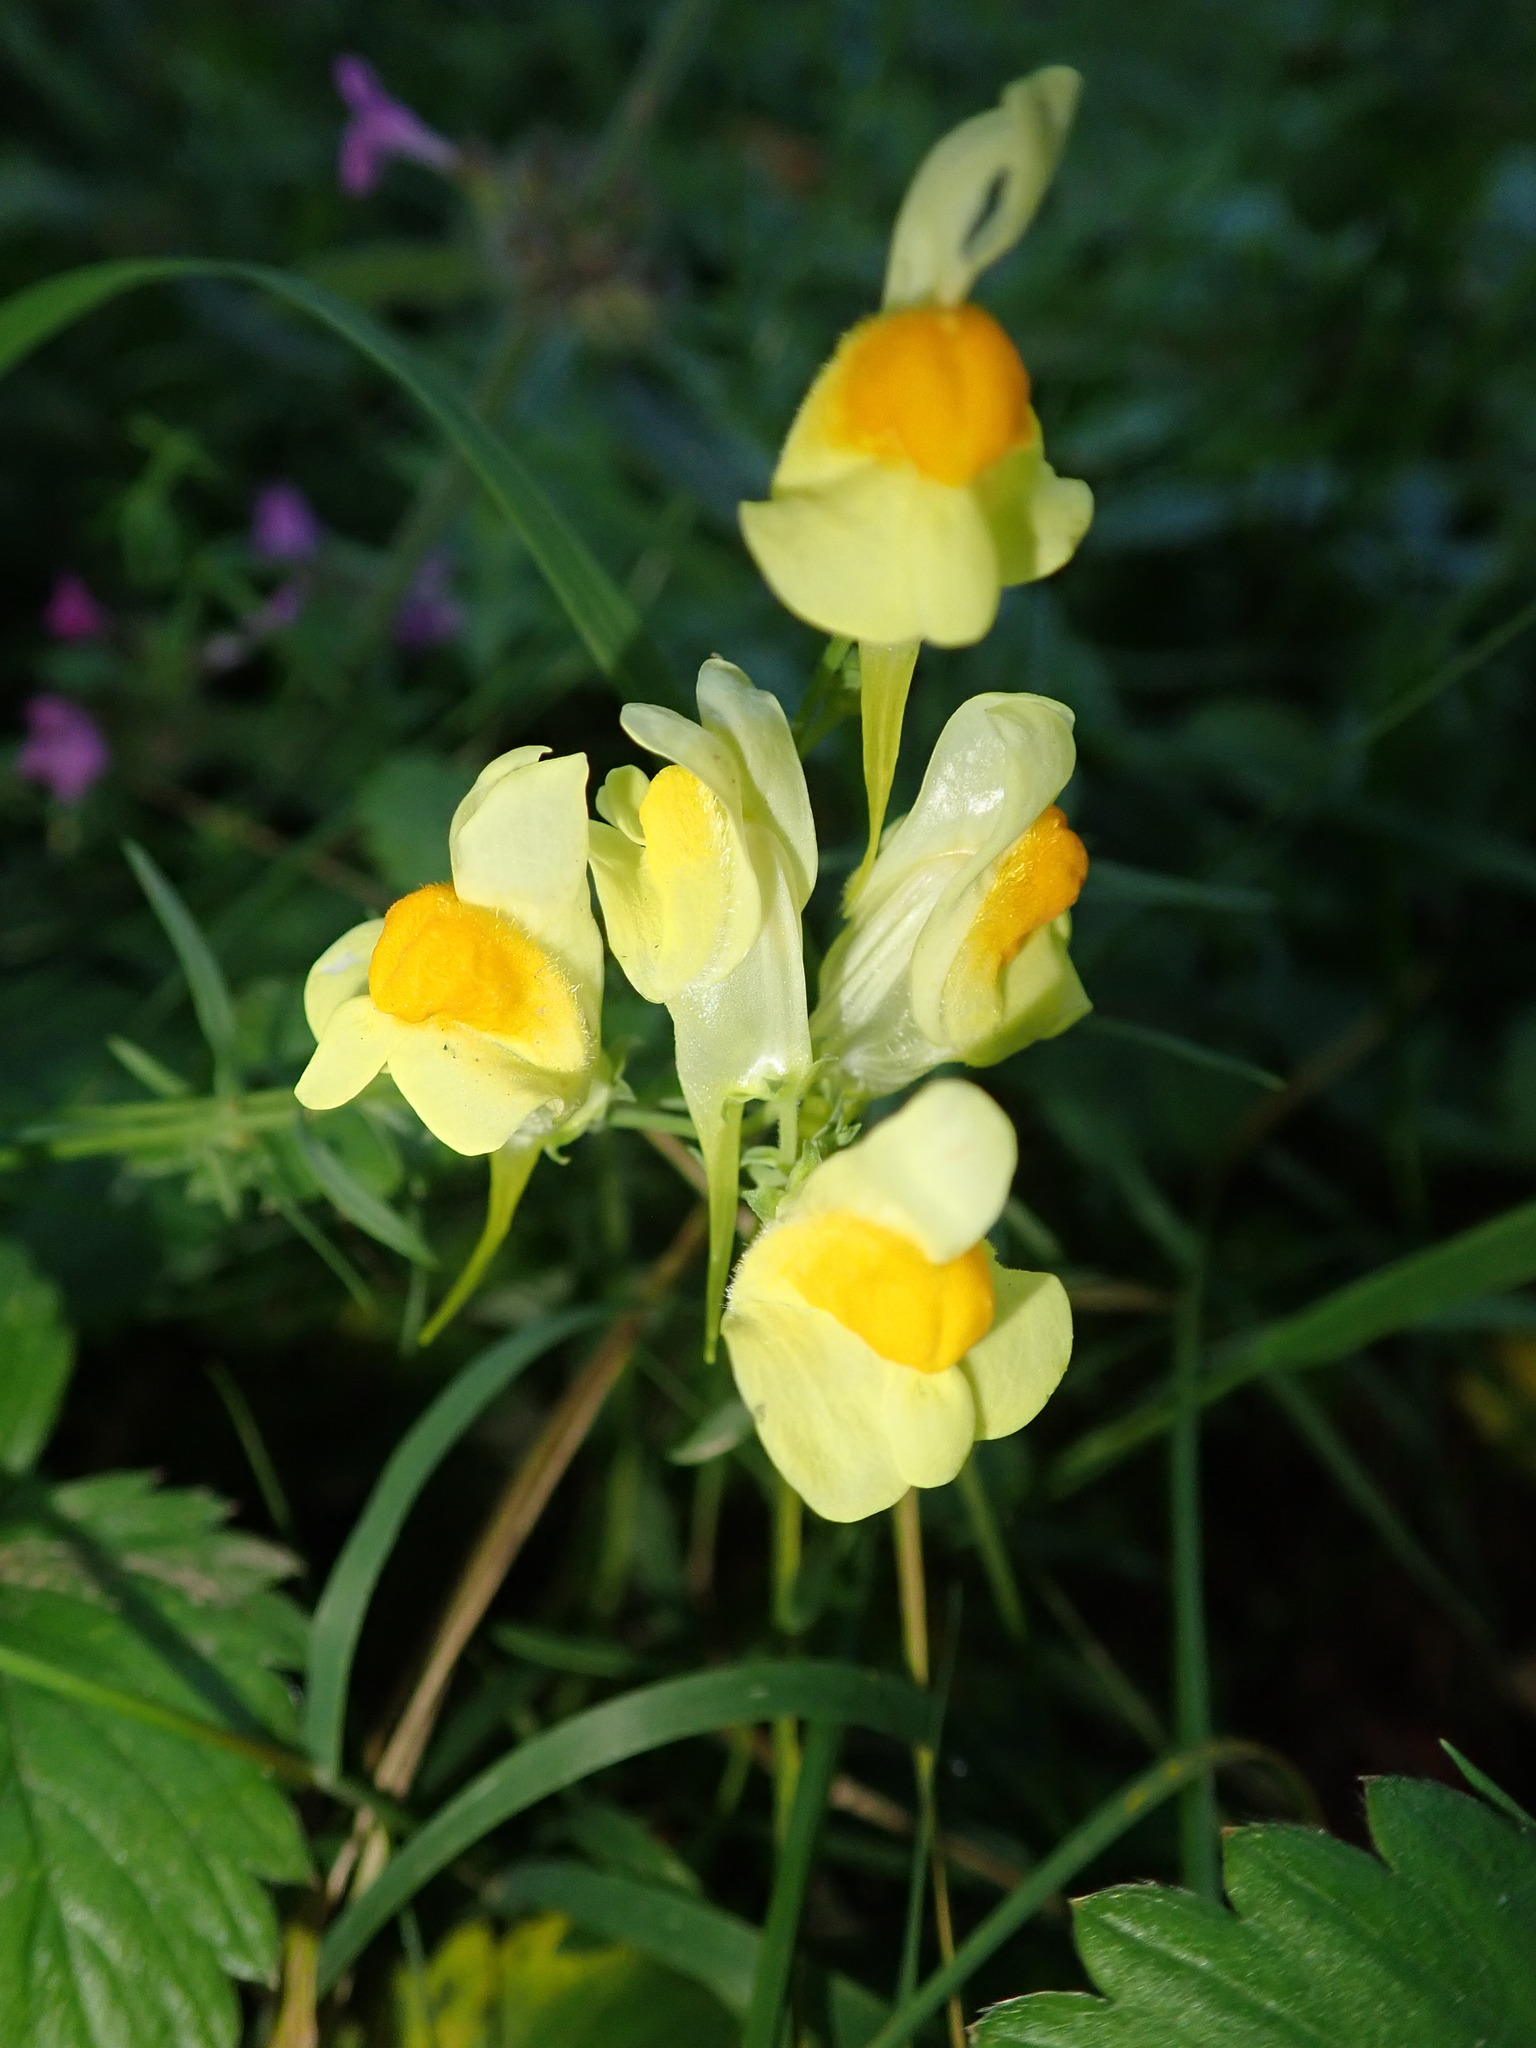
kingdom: Plantae
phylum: Tracheophyta
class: Magnoliopsida
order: Lamiales
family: Plantaginaceae
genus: Linaria
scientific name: Linaria vulgaris
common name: Butter and eggs
